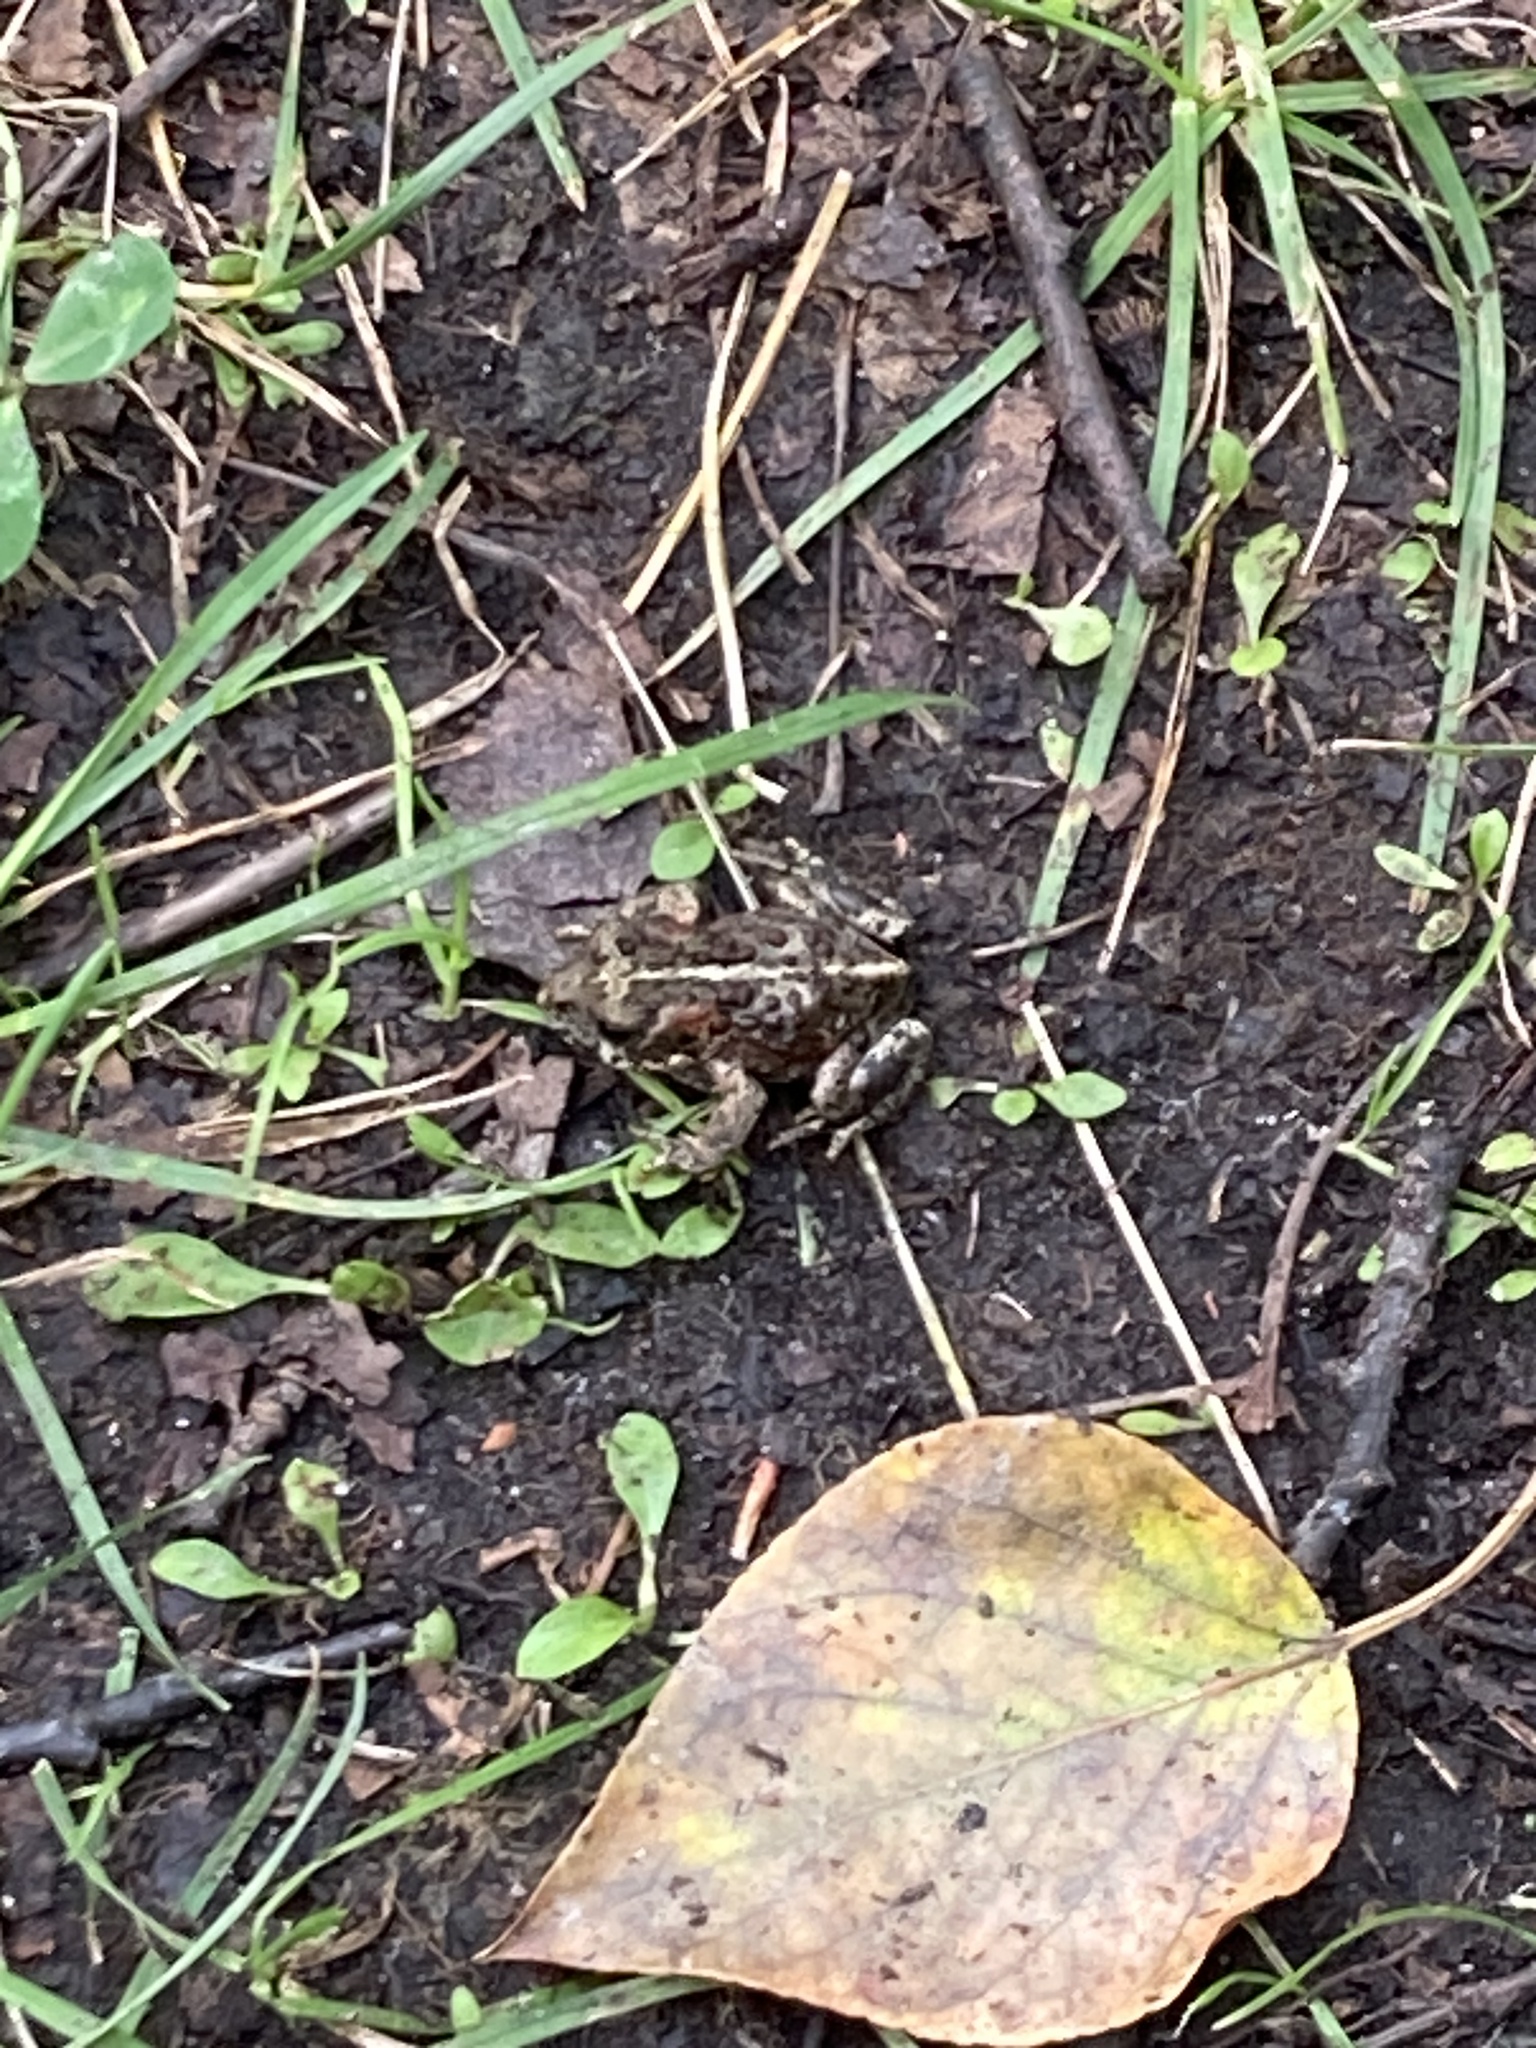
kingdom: Animalia
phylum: Chordata
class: Amphibia
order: Anura
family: Bufonidae
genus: Anaxyrus
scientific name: Anaxyrus boreas
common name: Western toad
